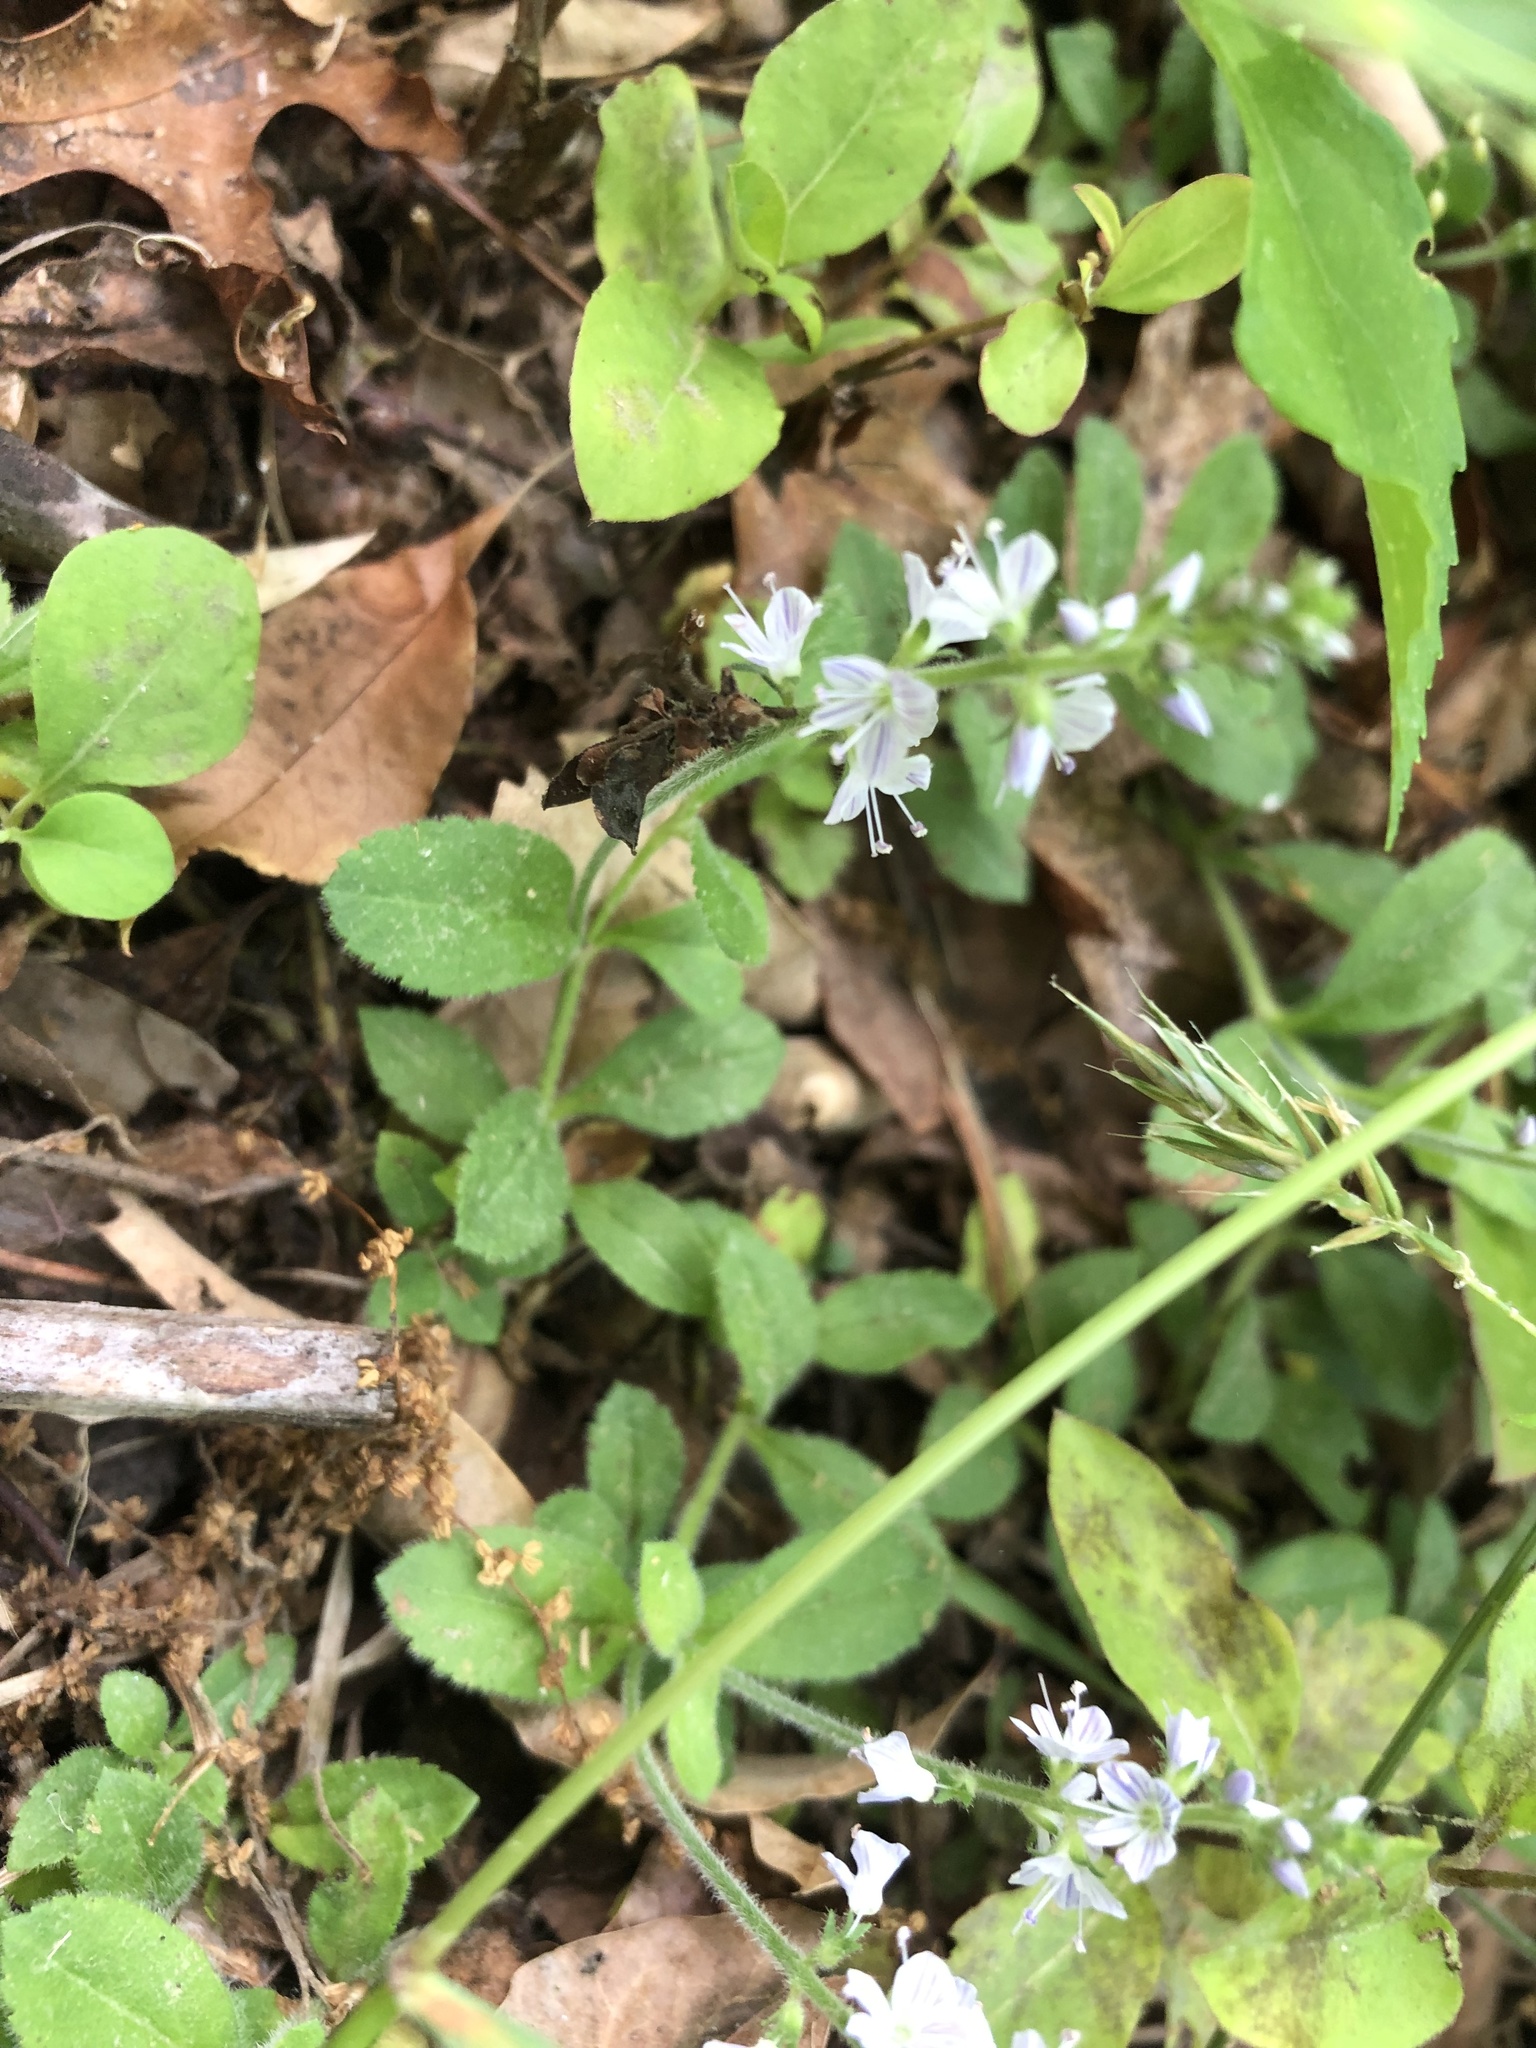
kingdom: Plantae
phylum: Tracheophyta
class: Magnoliopsida
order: Lamiales
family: Plantaginaceae
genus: Veronica
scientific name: Veronica officinalis
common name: Common speedwell
